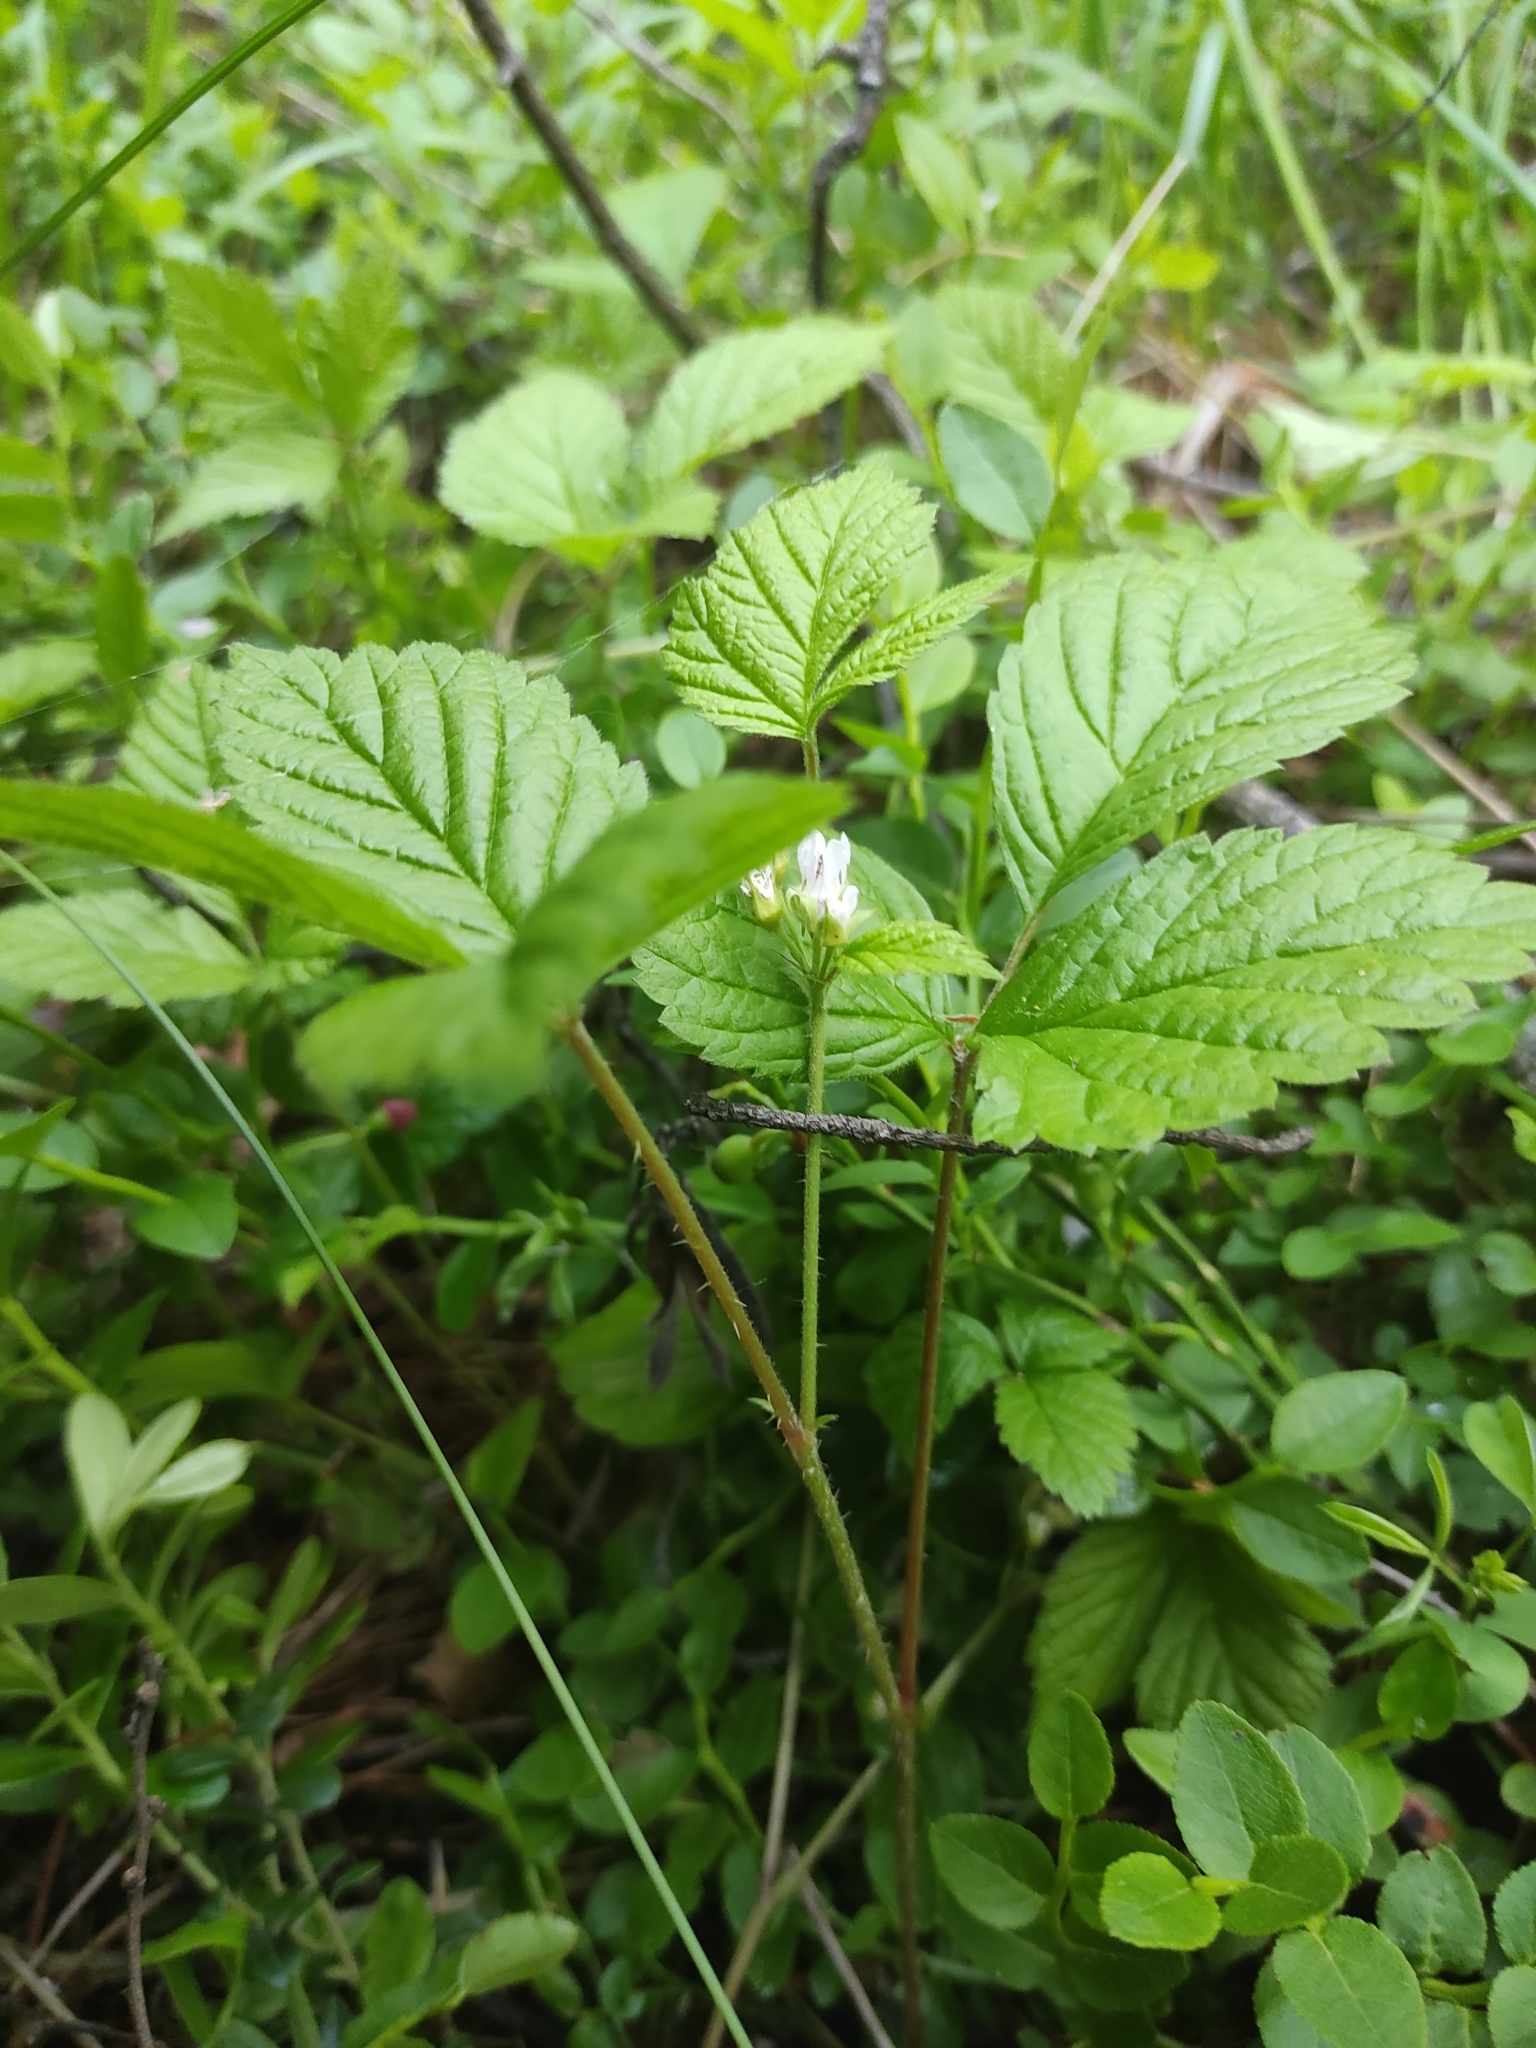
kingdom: Plantae
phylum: Tracheophyta
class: Magnoliopsida
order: Rosales
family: Rosaceae
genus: Rubus
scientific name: Rubus saxatilis
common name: Stone bramble
